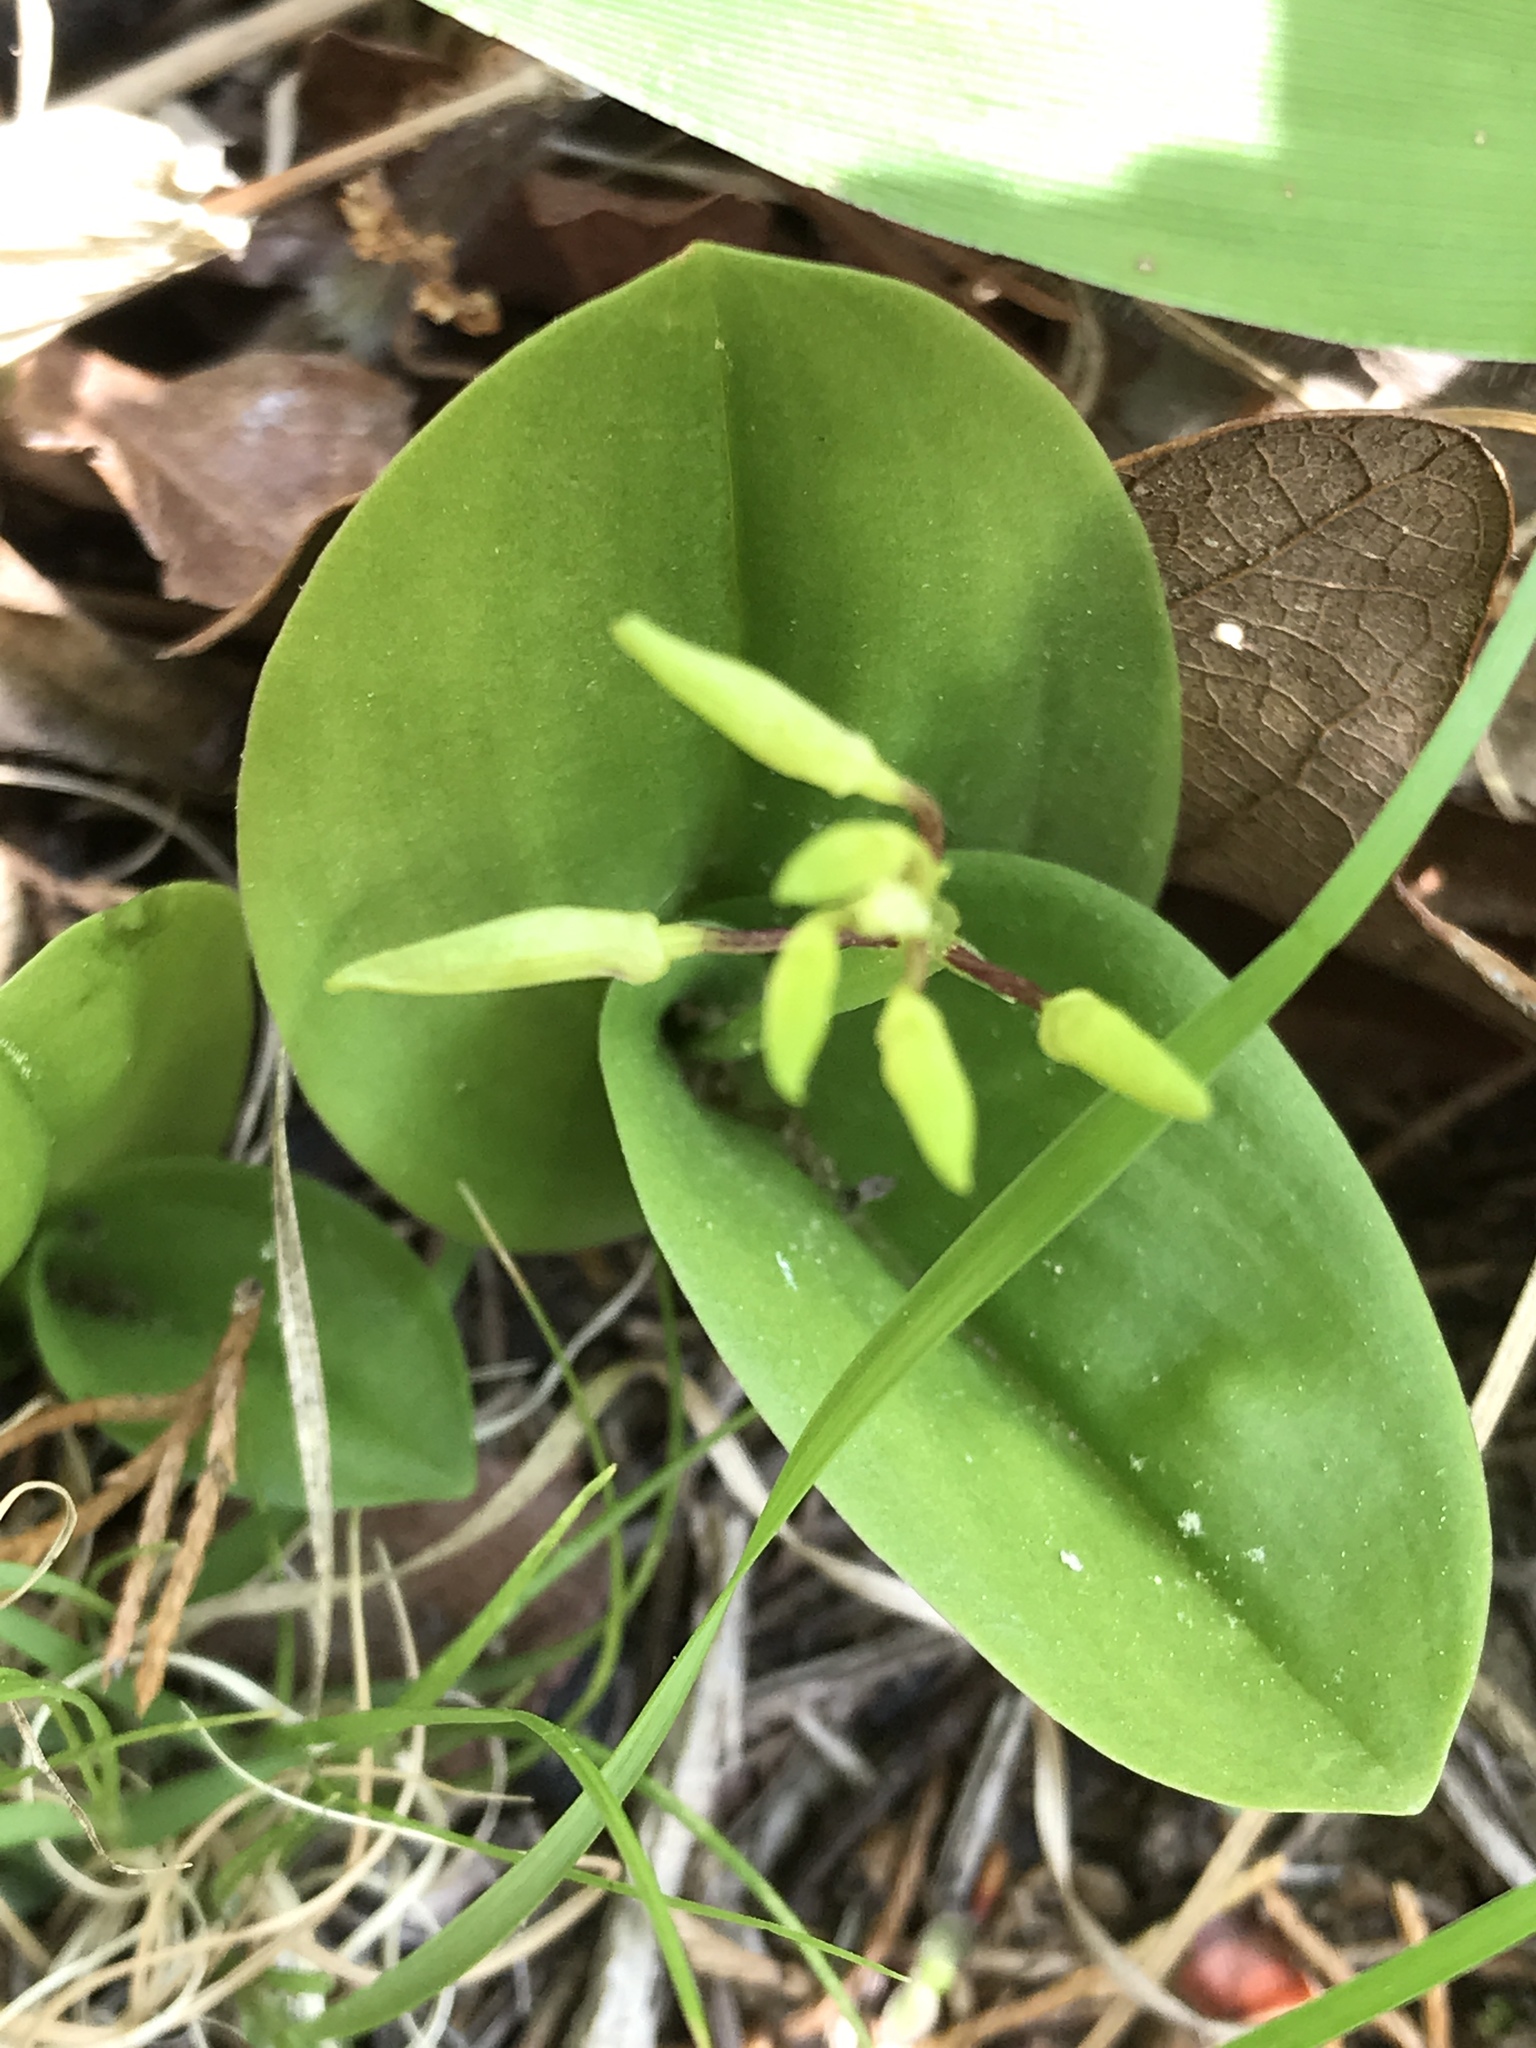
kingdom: Plantae
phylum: Tracheophyta
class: Liliopsida
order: Asparagales
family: Orchidaceae
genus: Liparis
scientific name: Liparis liliifolia
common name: Brown wide-lip orchid
